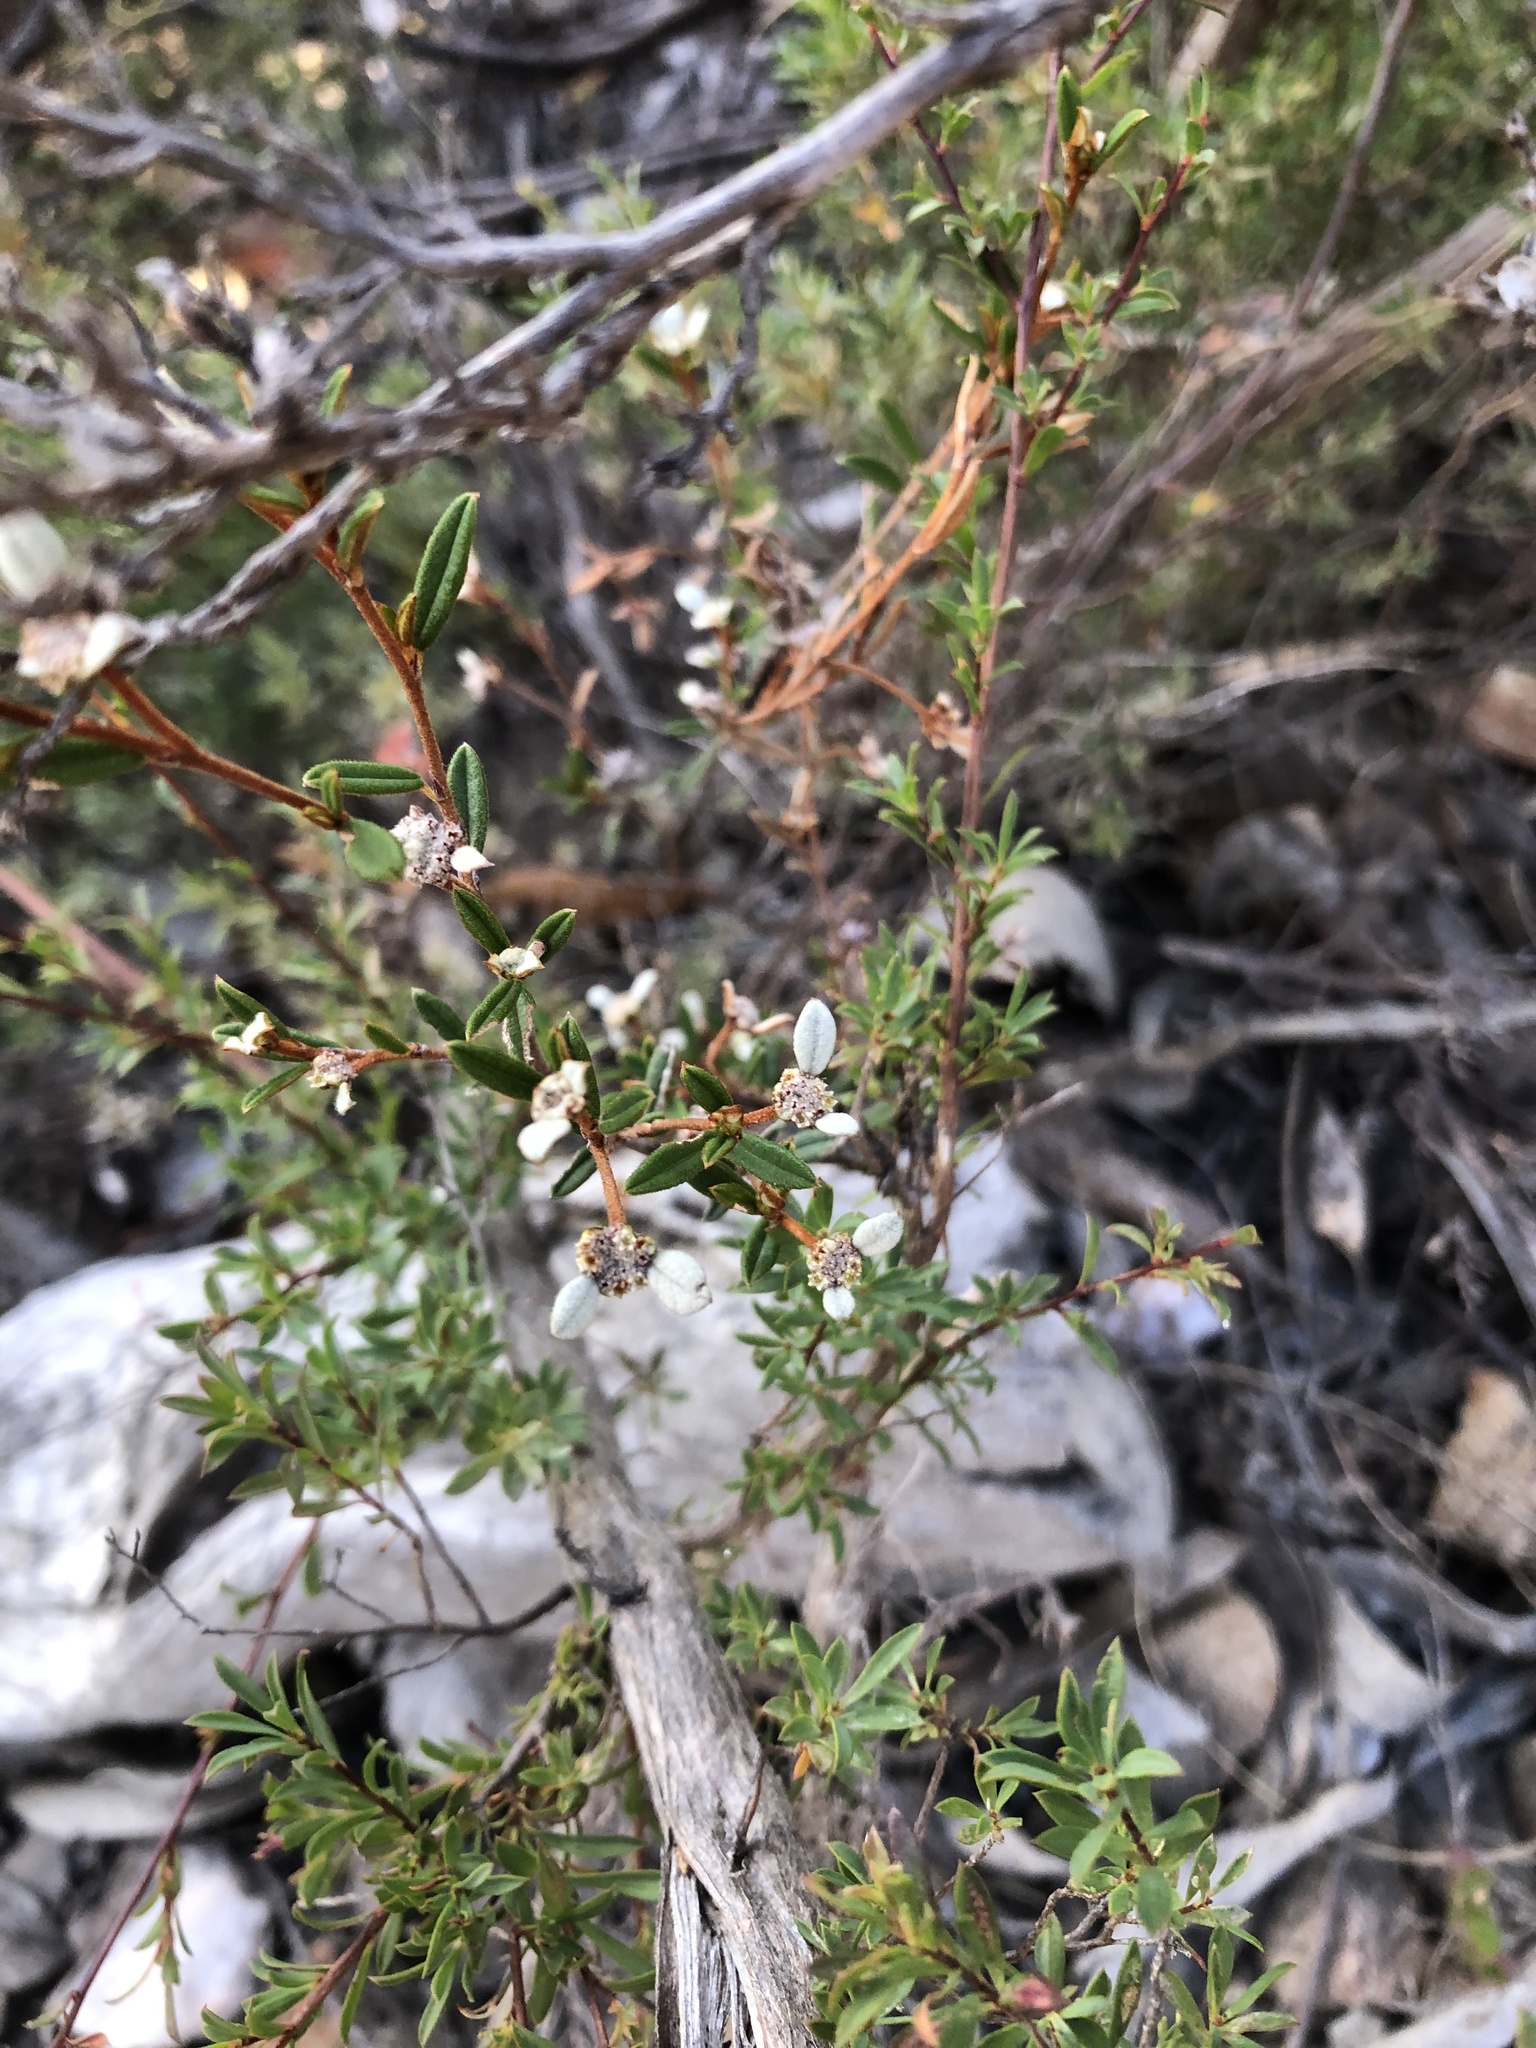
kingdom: Plantae
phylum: Tracheophyta
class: Magnoliopsida
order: Rosales
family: Rhamnaceae
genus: Spyridium
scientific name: Spyridium vexilliferum
